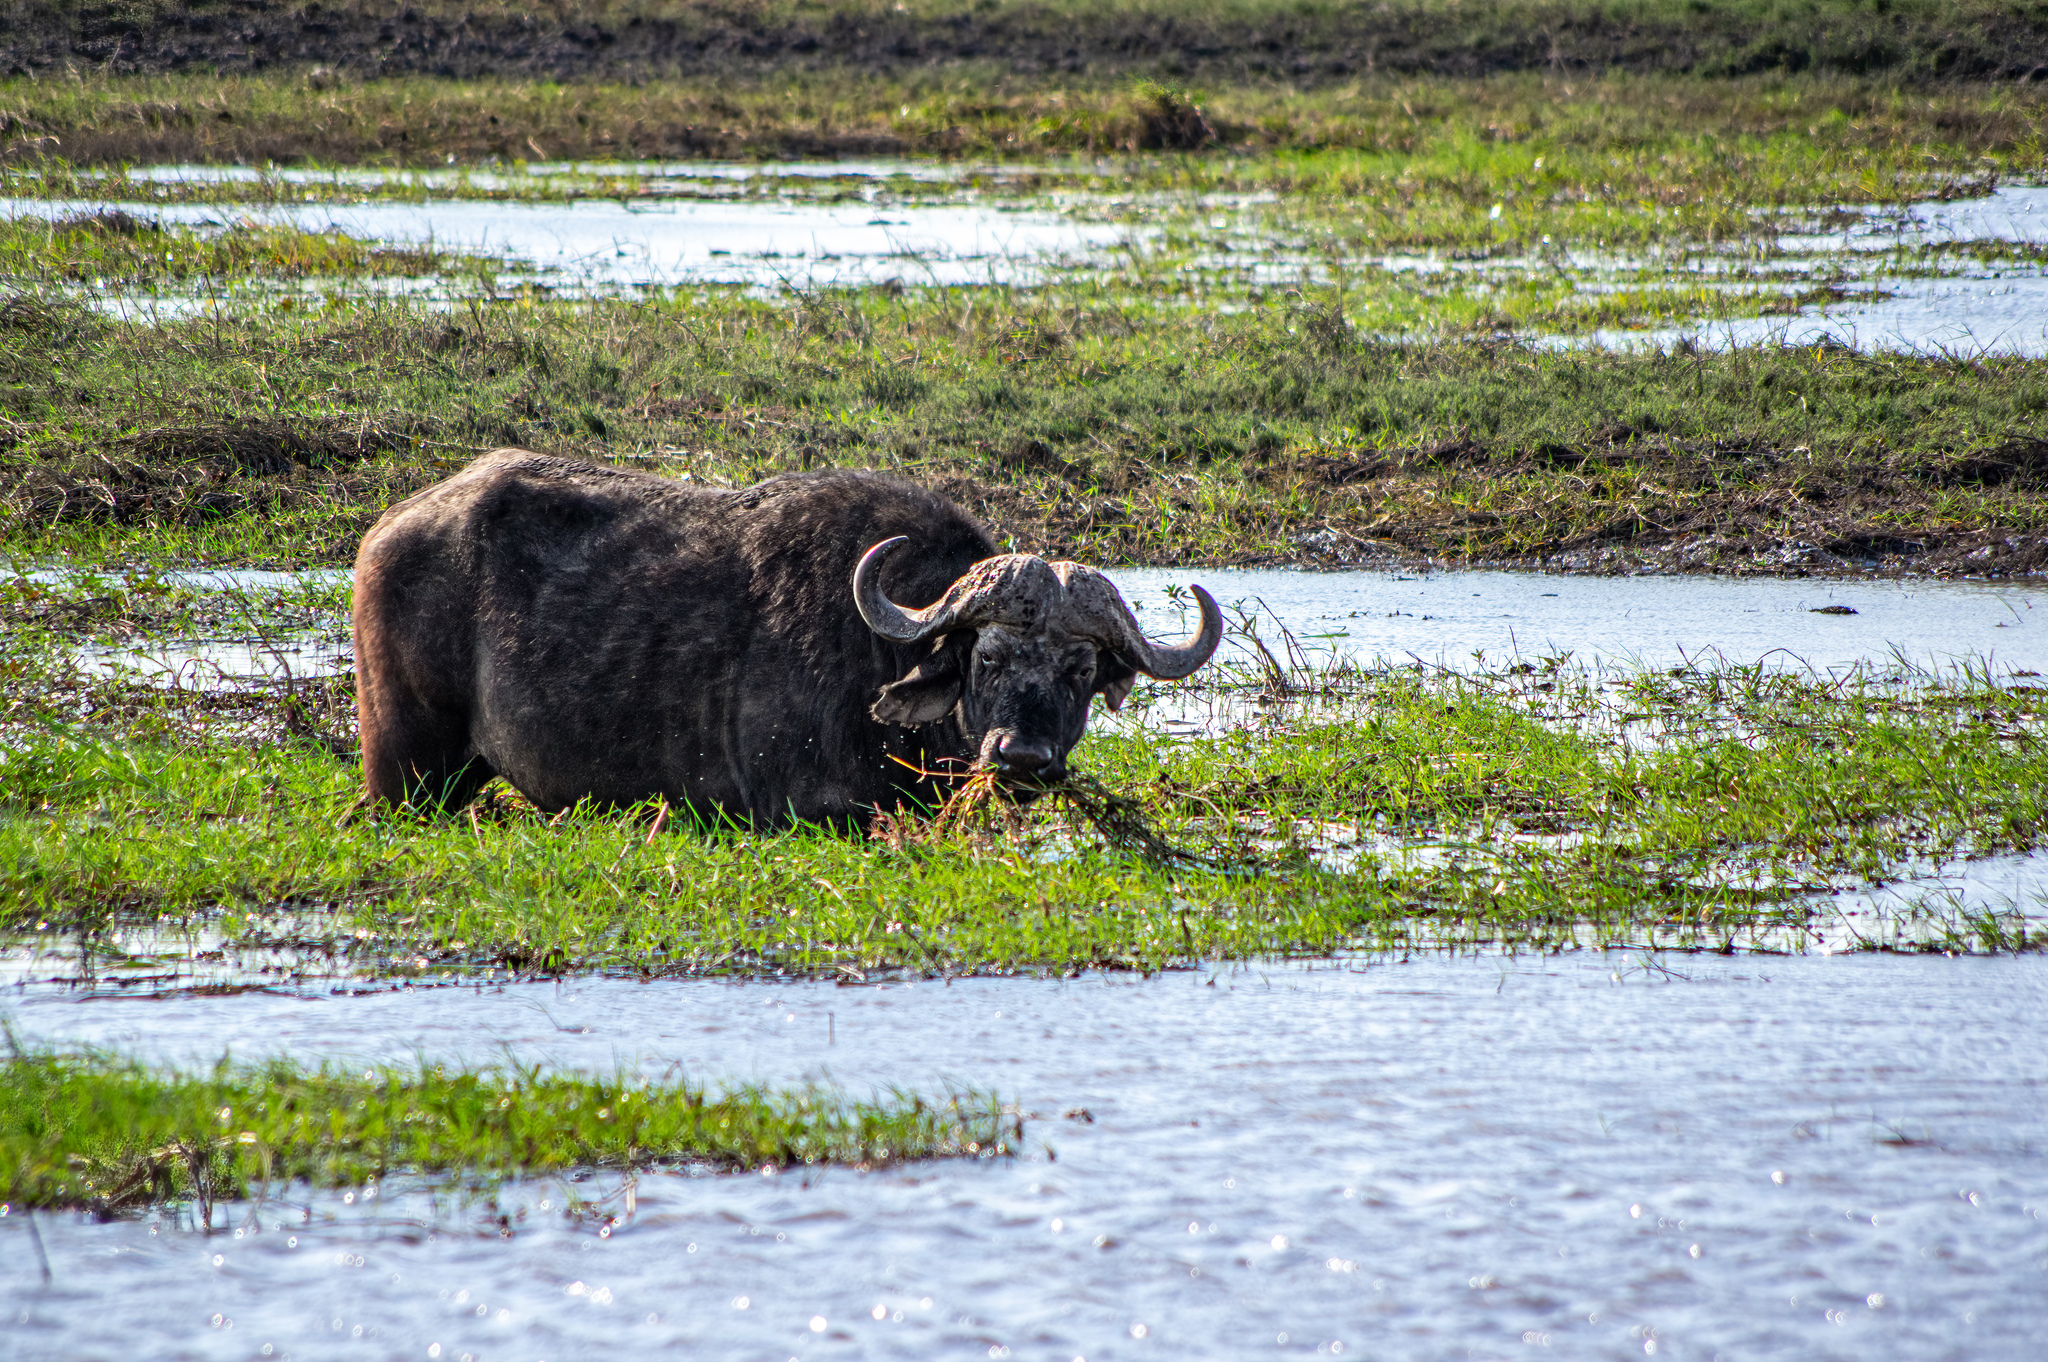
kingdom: Animalia
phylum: Chordata
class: Mammalia
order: Artiodactyla
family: Bovidae
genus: Syncerus
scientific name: Syncerus caffer
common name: African buffalo
